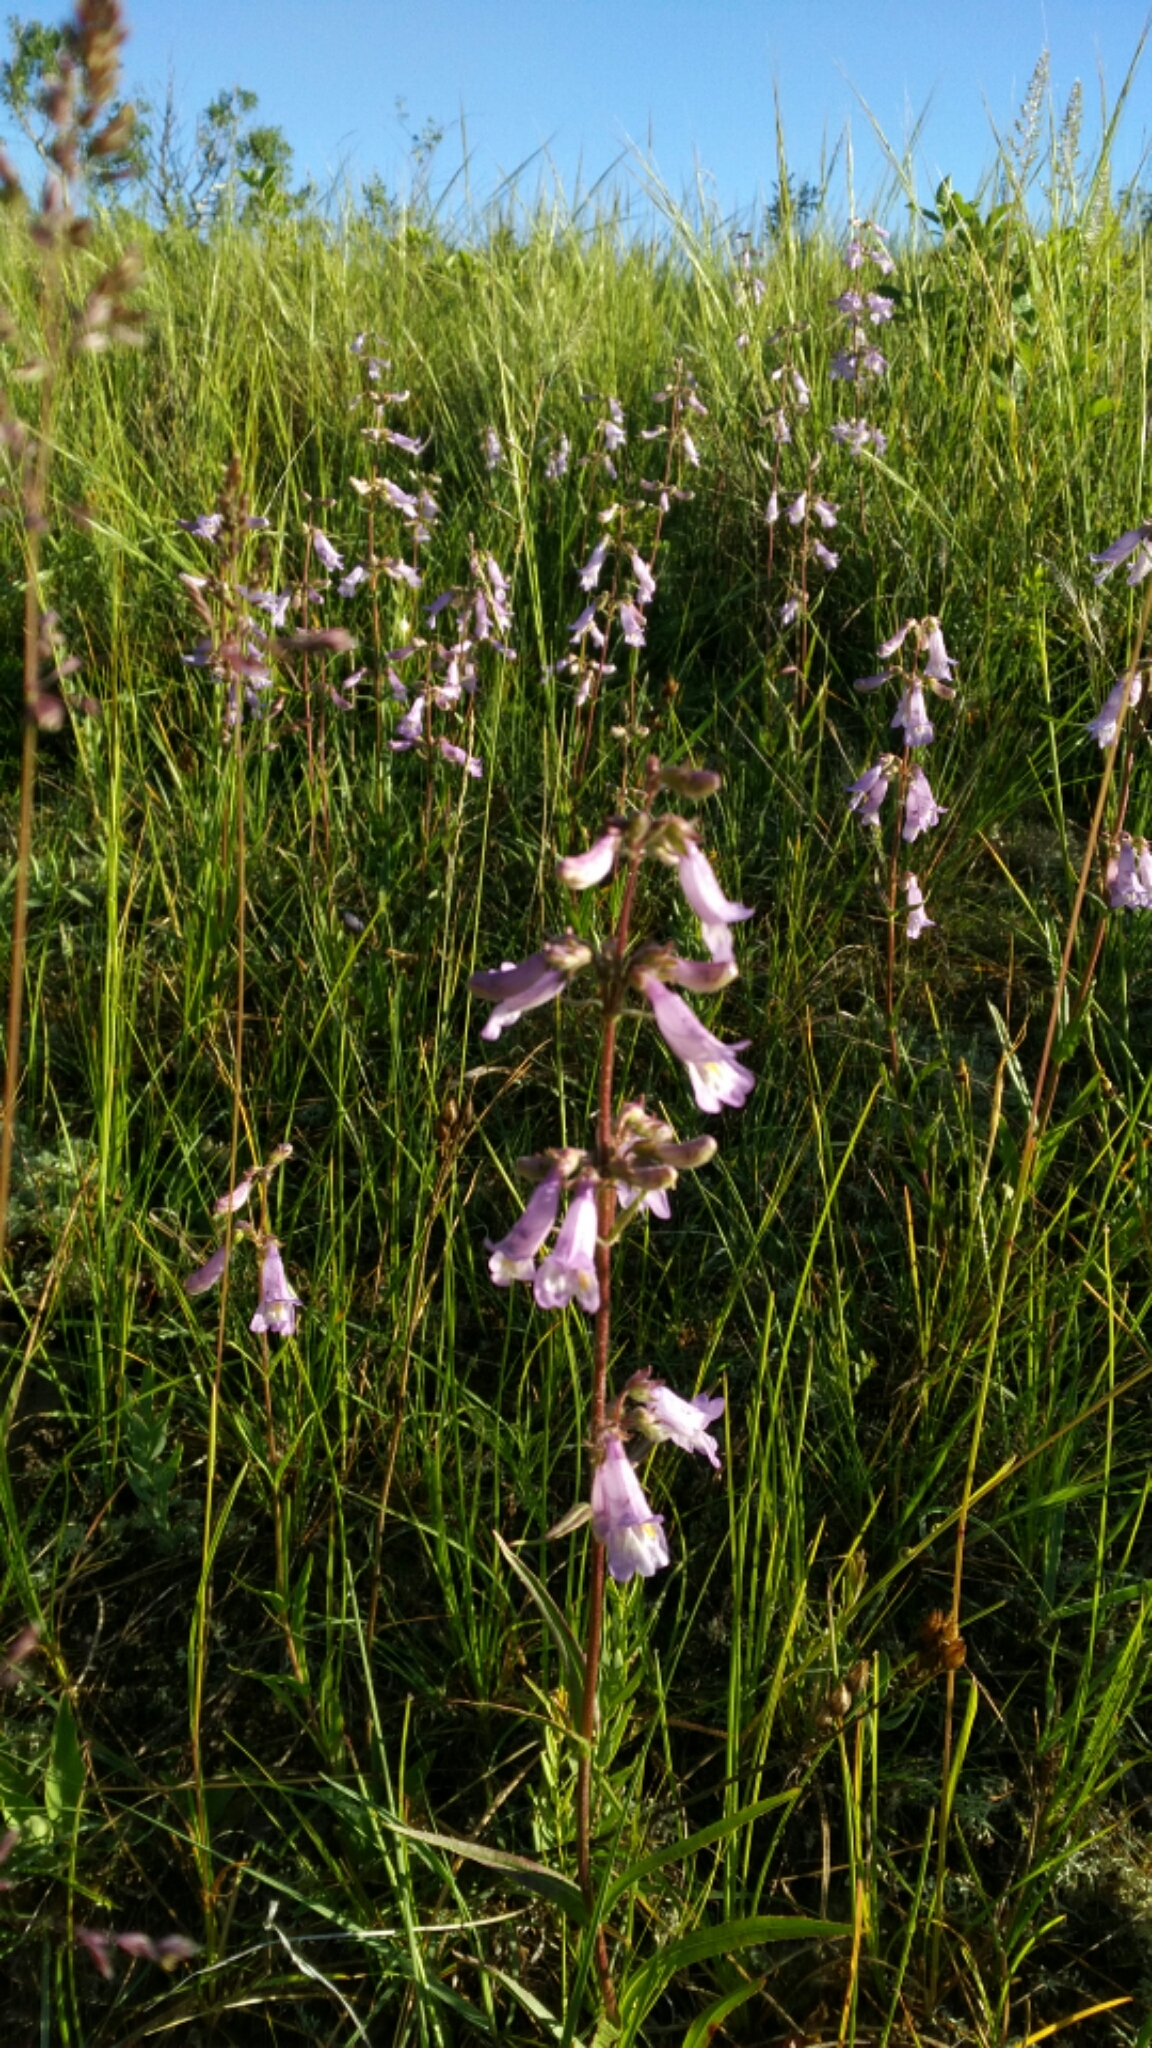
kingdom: Plantae
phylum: Tracheophyta
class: Magnoliopsida
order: Lamiales
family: Plantaginaceae
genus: Penstemon
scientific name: Penstemon gracilis
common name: Slender beardtongue
